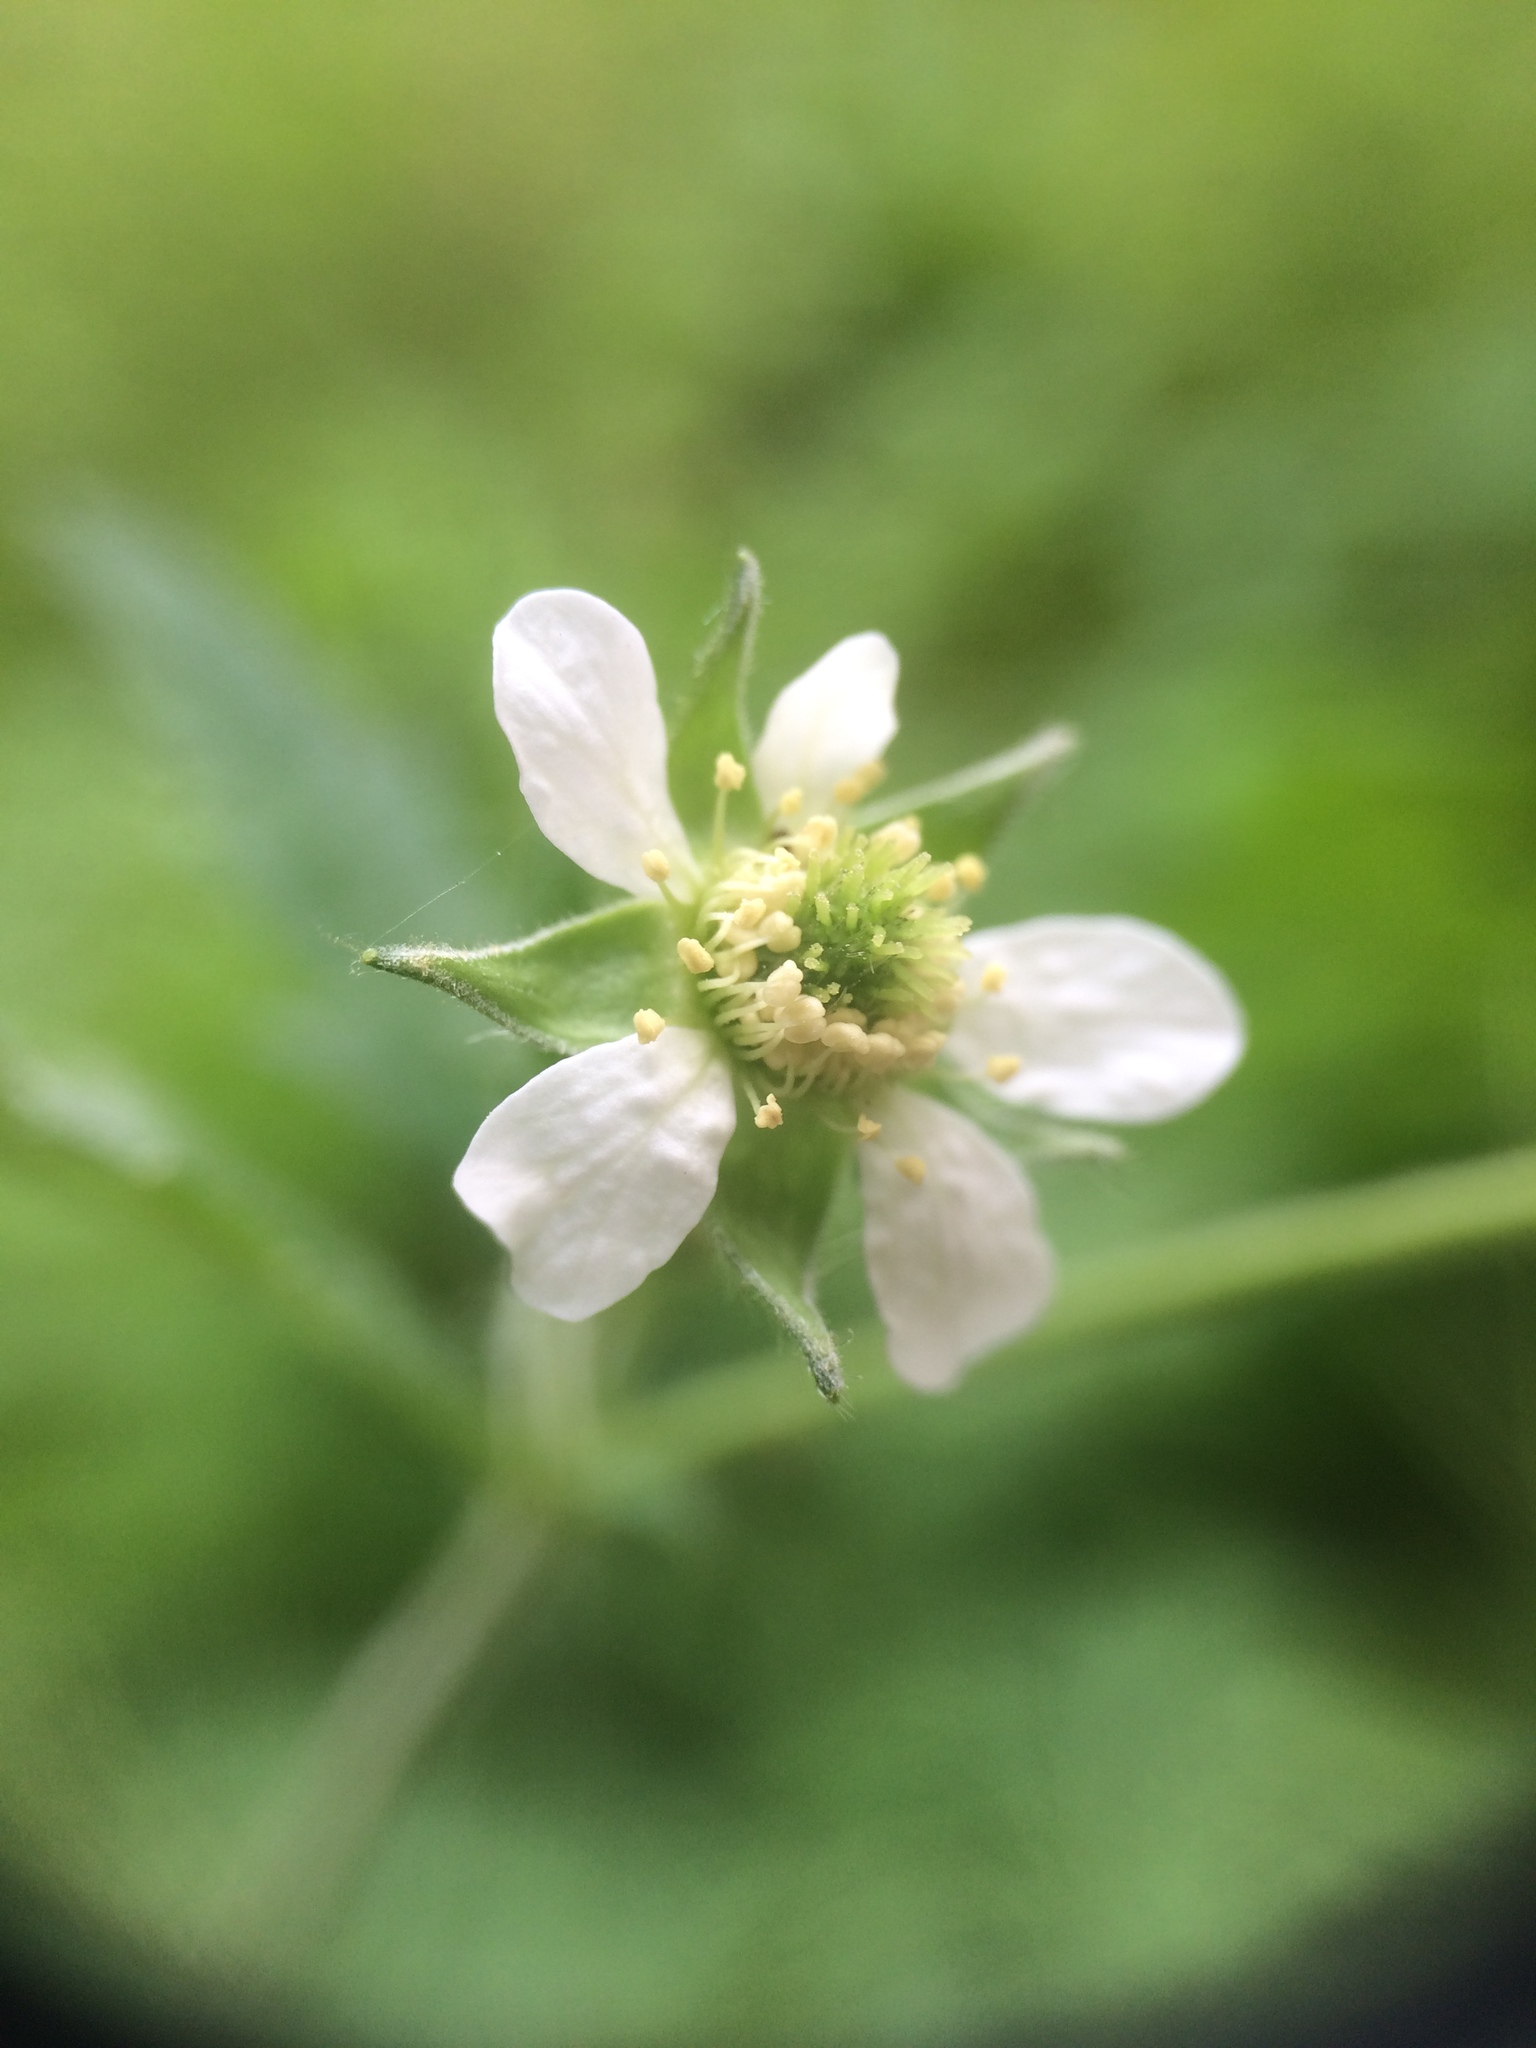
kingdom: Plantae
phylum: Tracheophyta
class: Magnoliopsida
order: Rosales
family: Rosaceae
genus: Geum
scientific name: Geum canadense
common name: White avens
